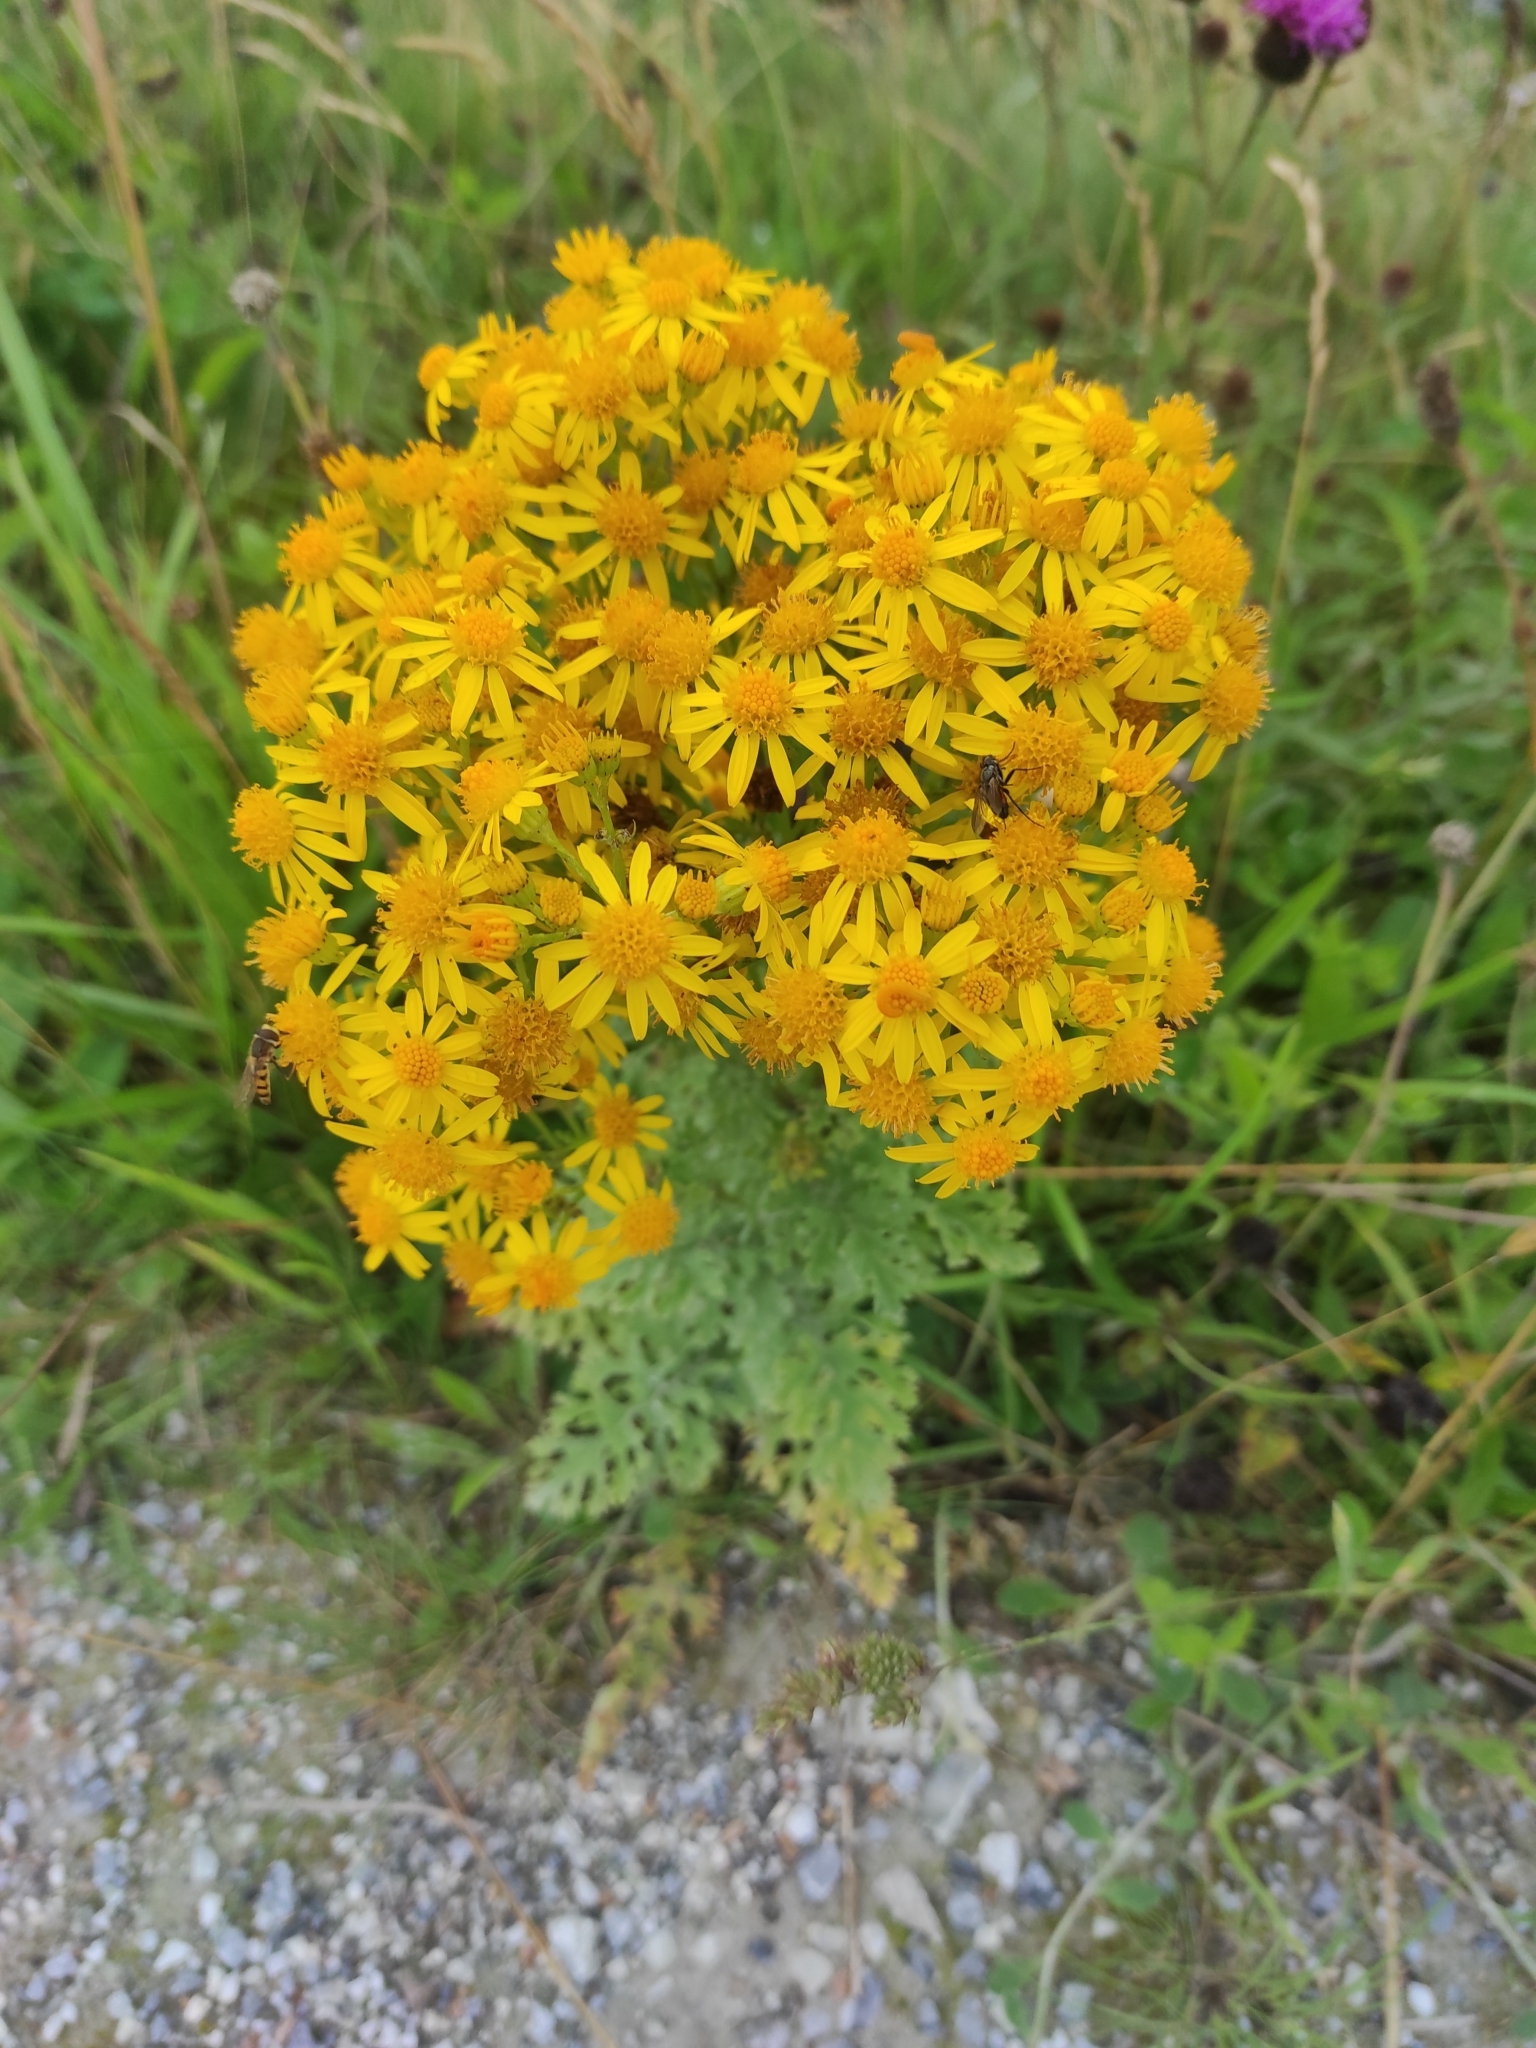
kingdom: Plantae
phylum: Tracheophyta
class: Magnoliopsida
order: Asterales
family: Asteraceae
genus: Jacobaea
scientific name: Jacobaea vulgaris
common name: Stinking willie
